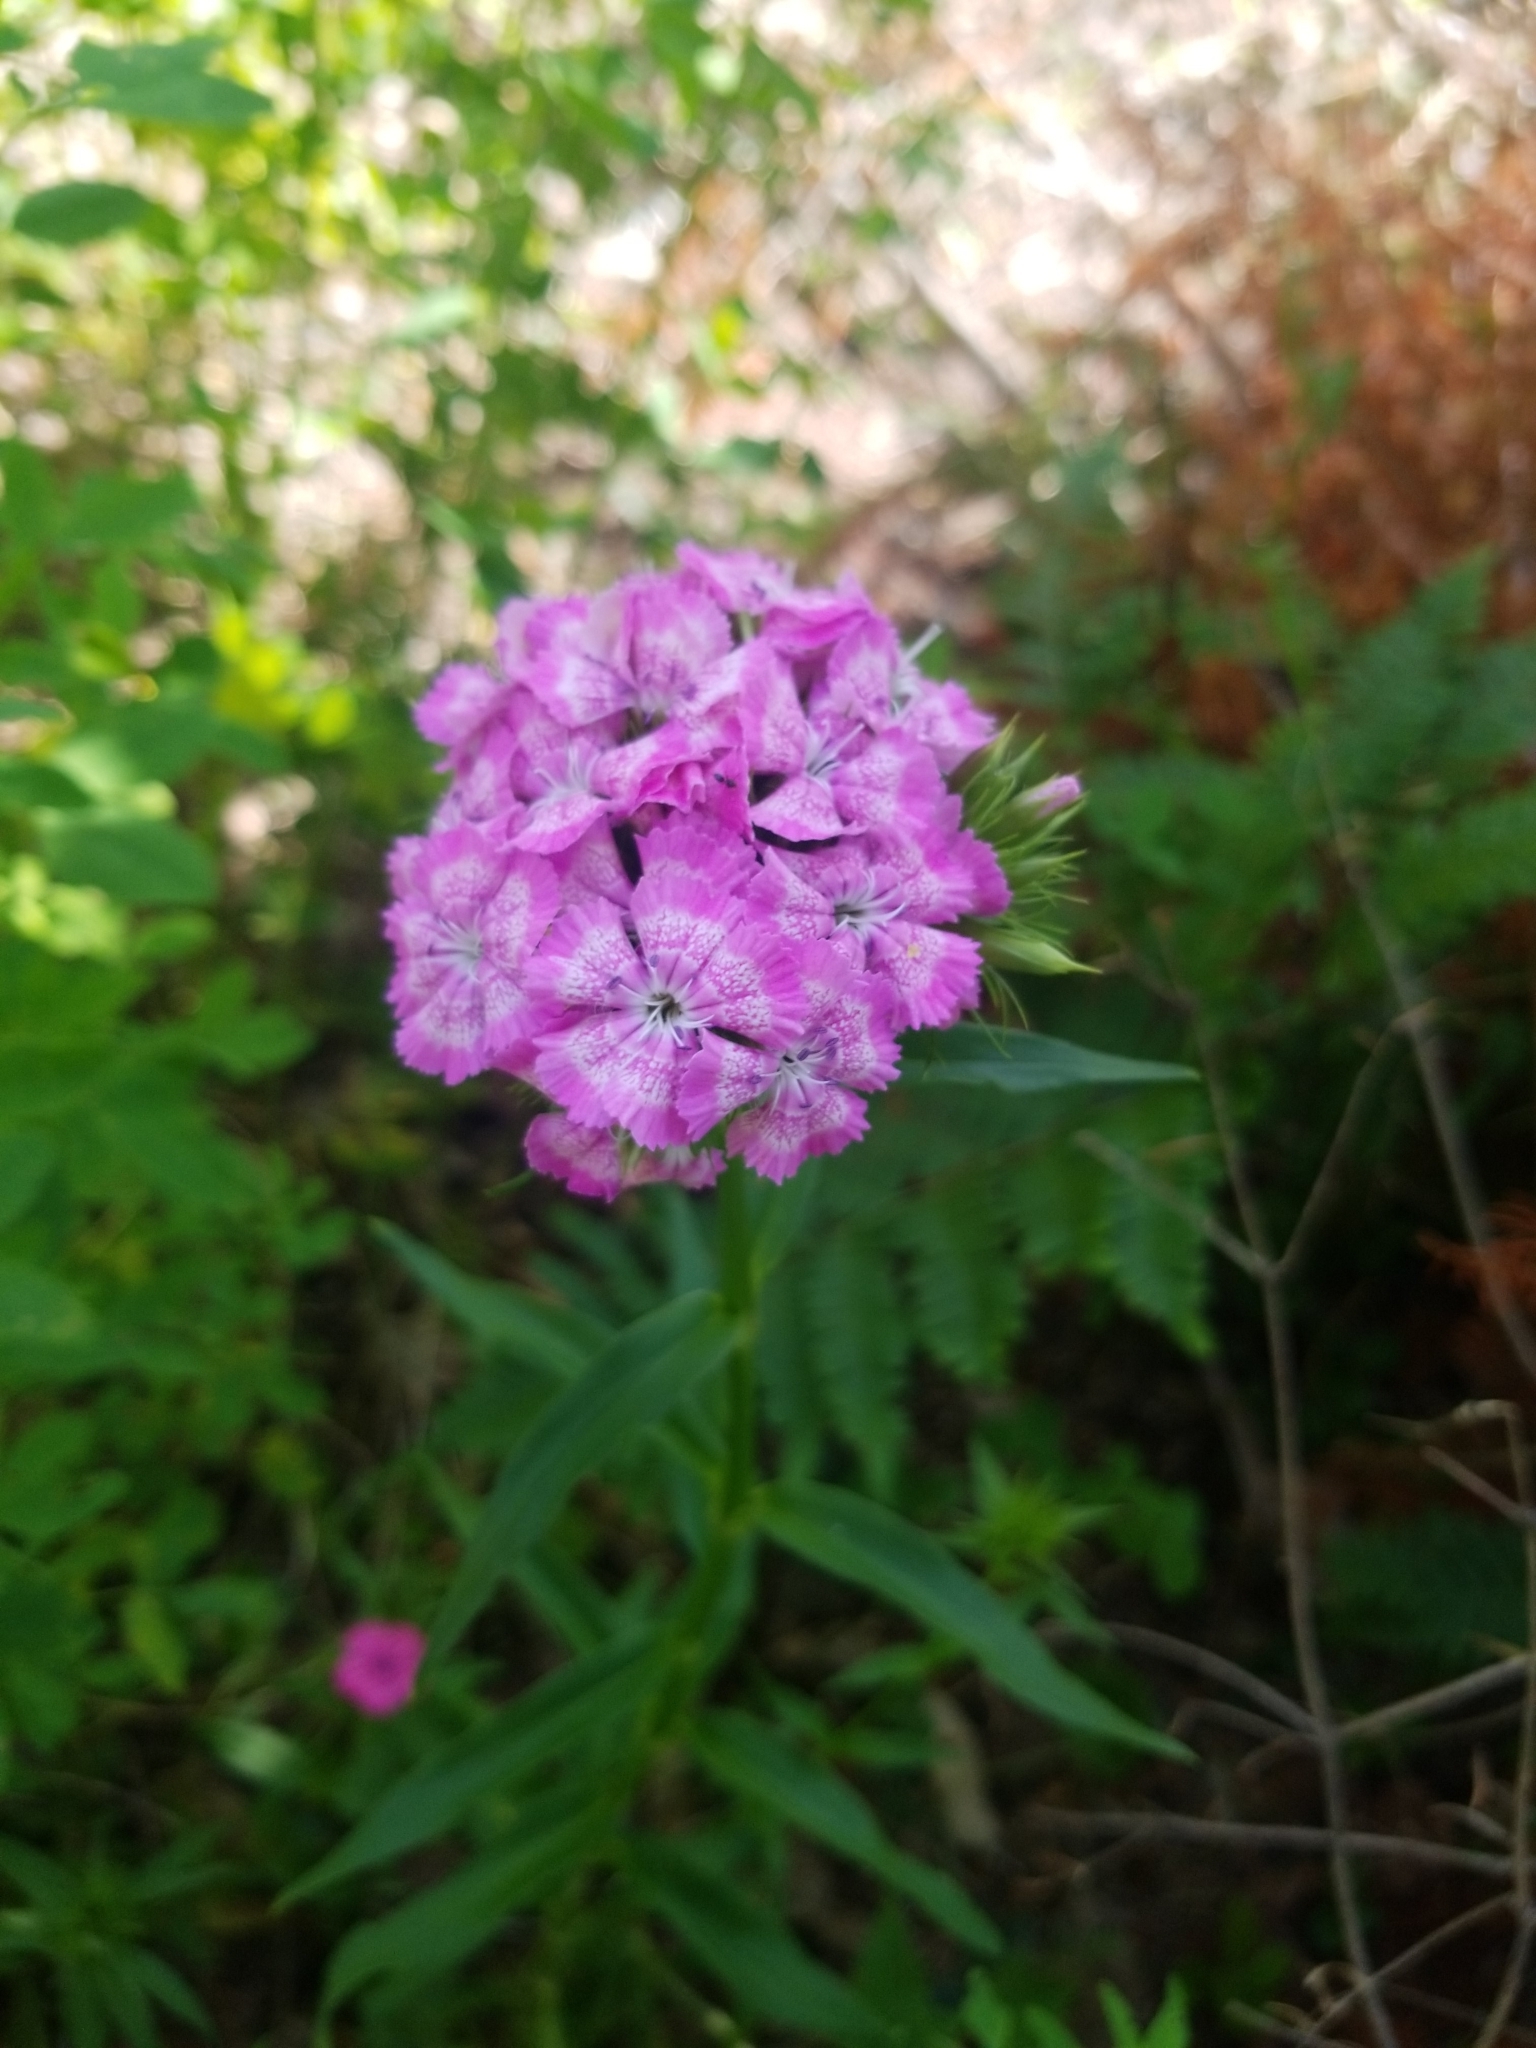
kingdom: Plantae
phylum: Tracheophyta
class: Magnoliopsida
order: Caryophyllales
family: Caryophyllaceae
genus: Dianthus
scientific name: Dianthus barbatus
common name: Sweet-william
